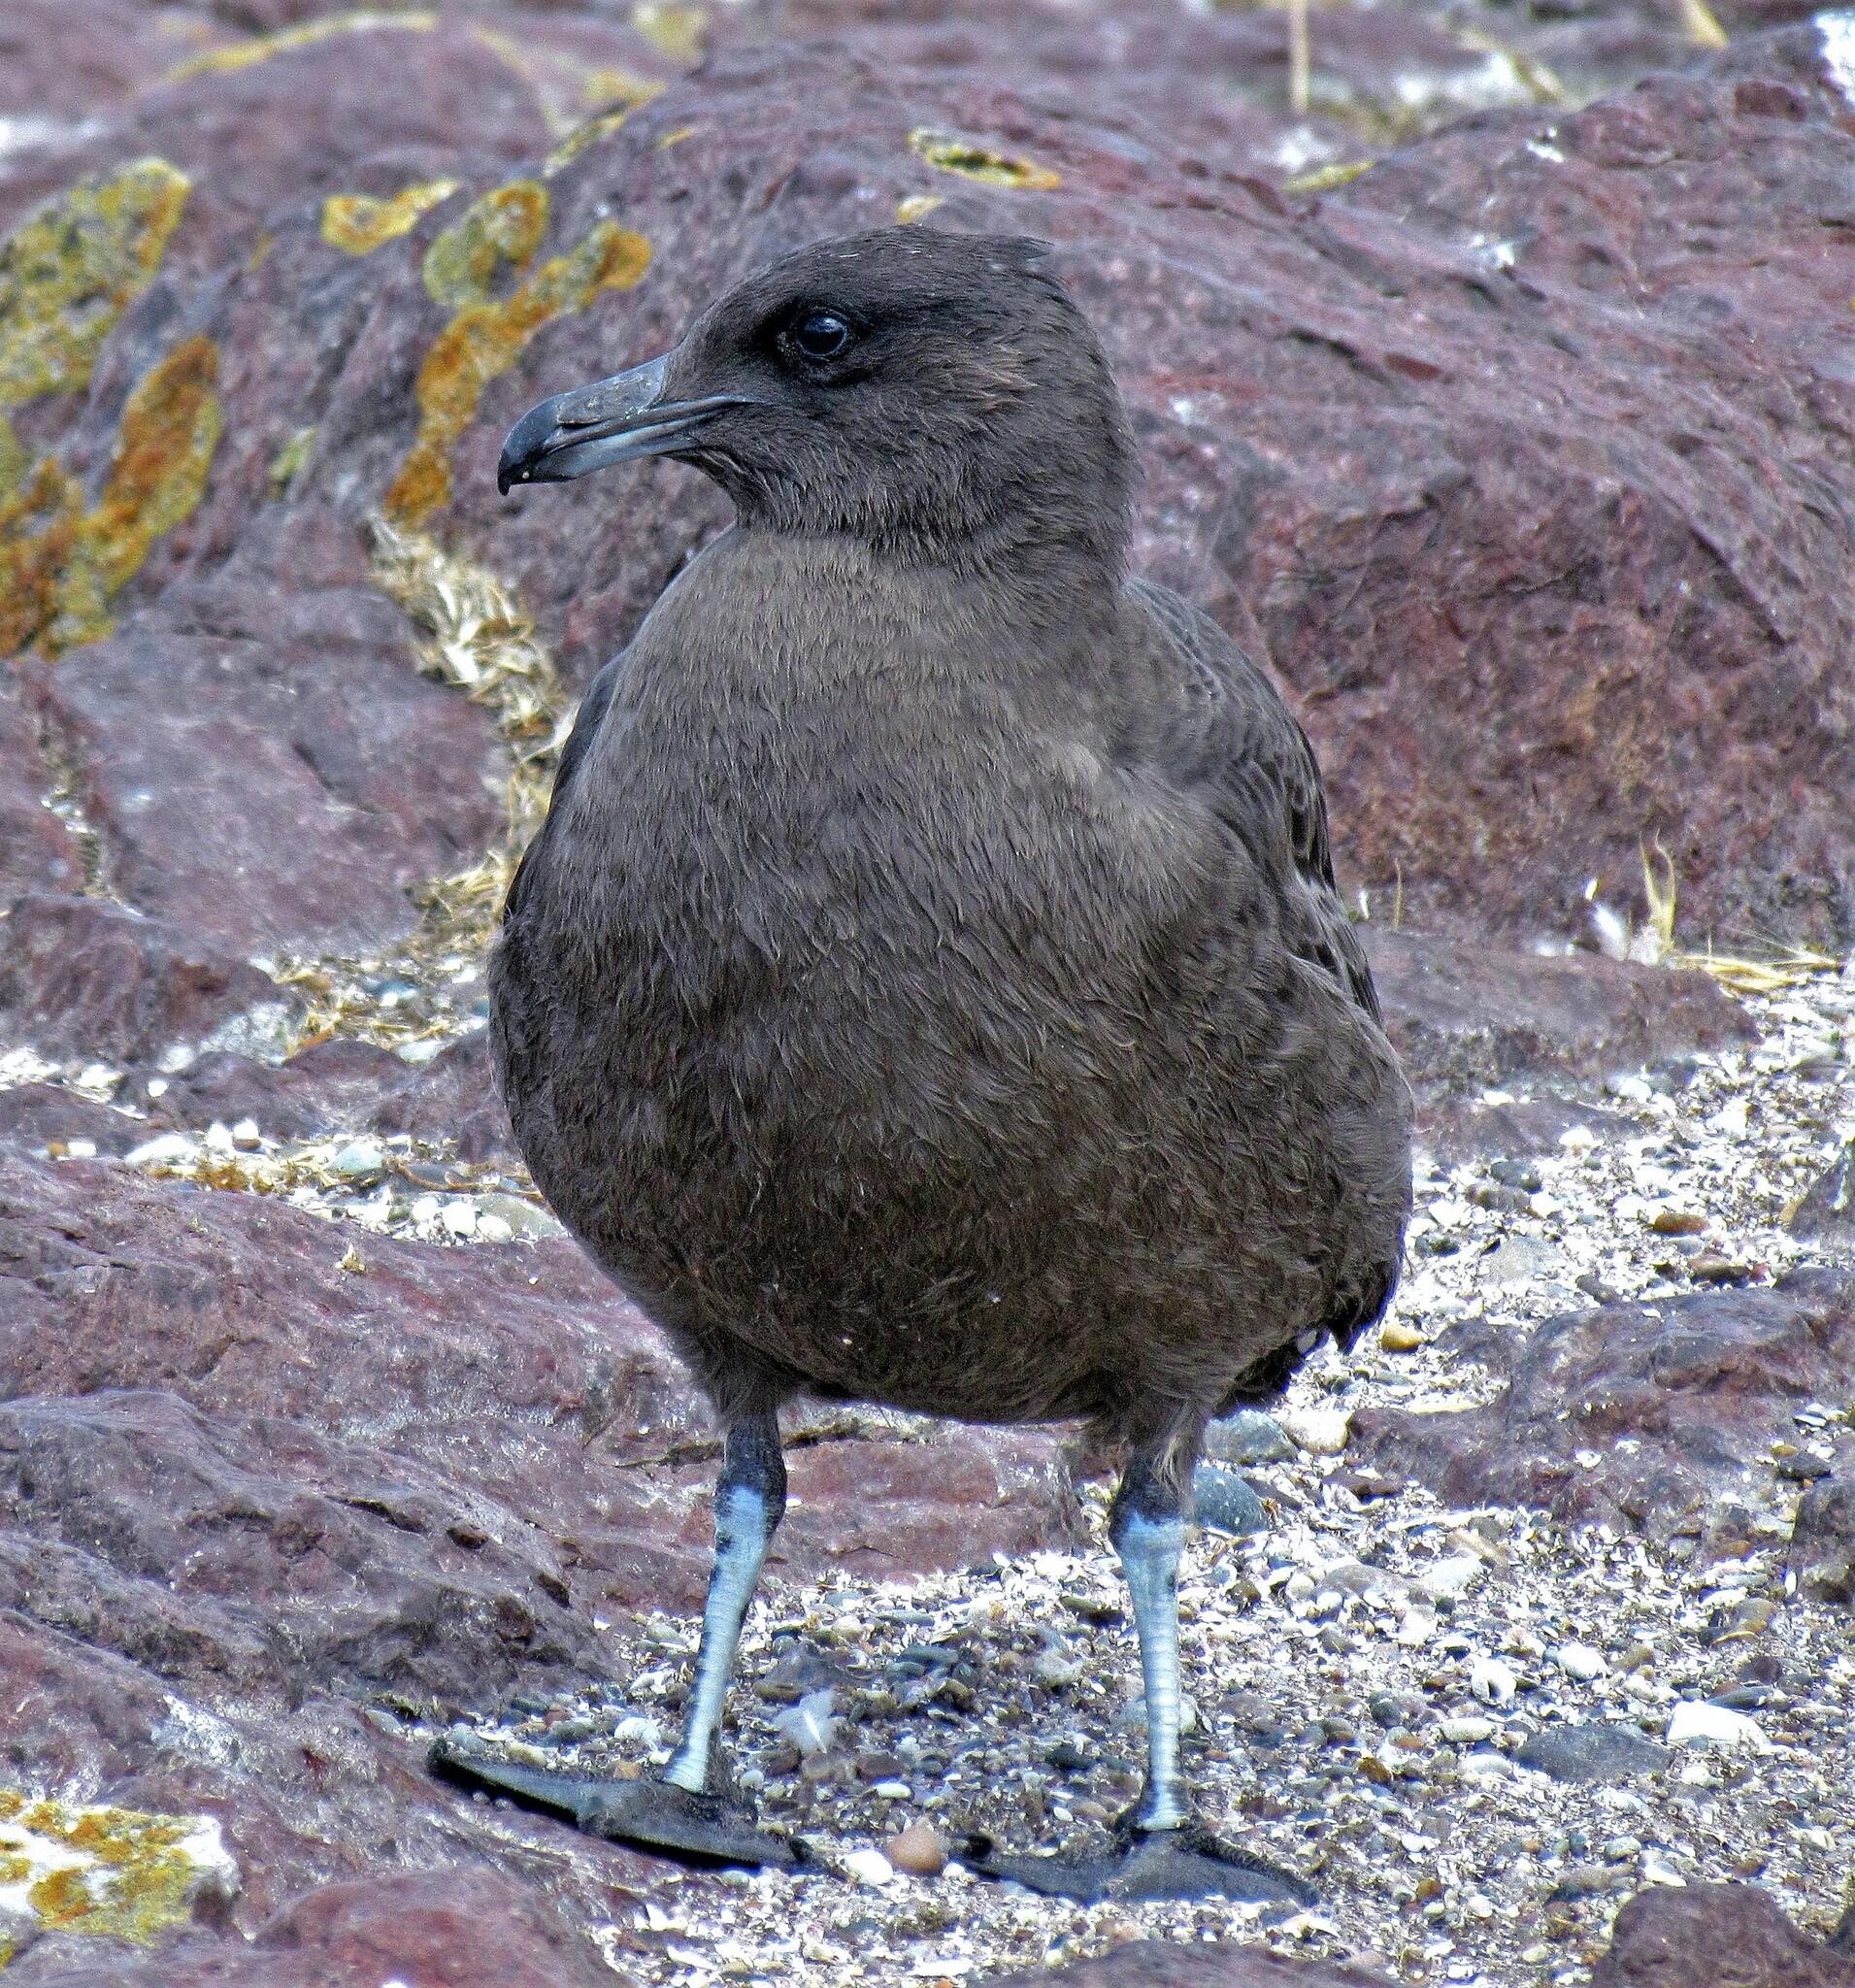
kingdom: Animalia
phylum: Chordata
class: Aves
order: Charadriiformes
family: Stercorariidae
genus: Stercorarius
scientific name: Stercorarius antarcticus
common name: Brown skua
